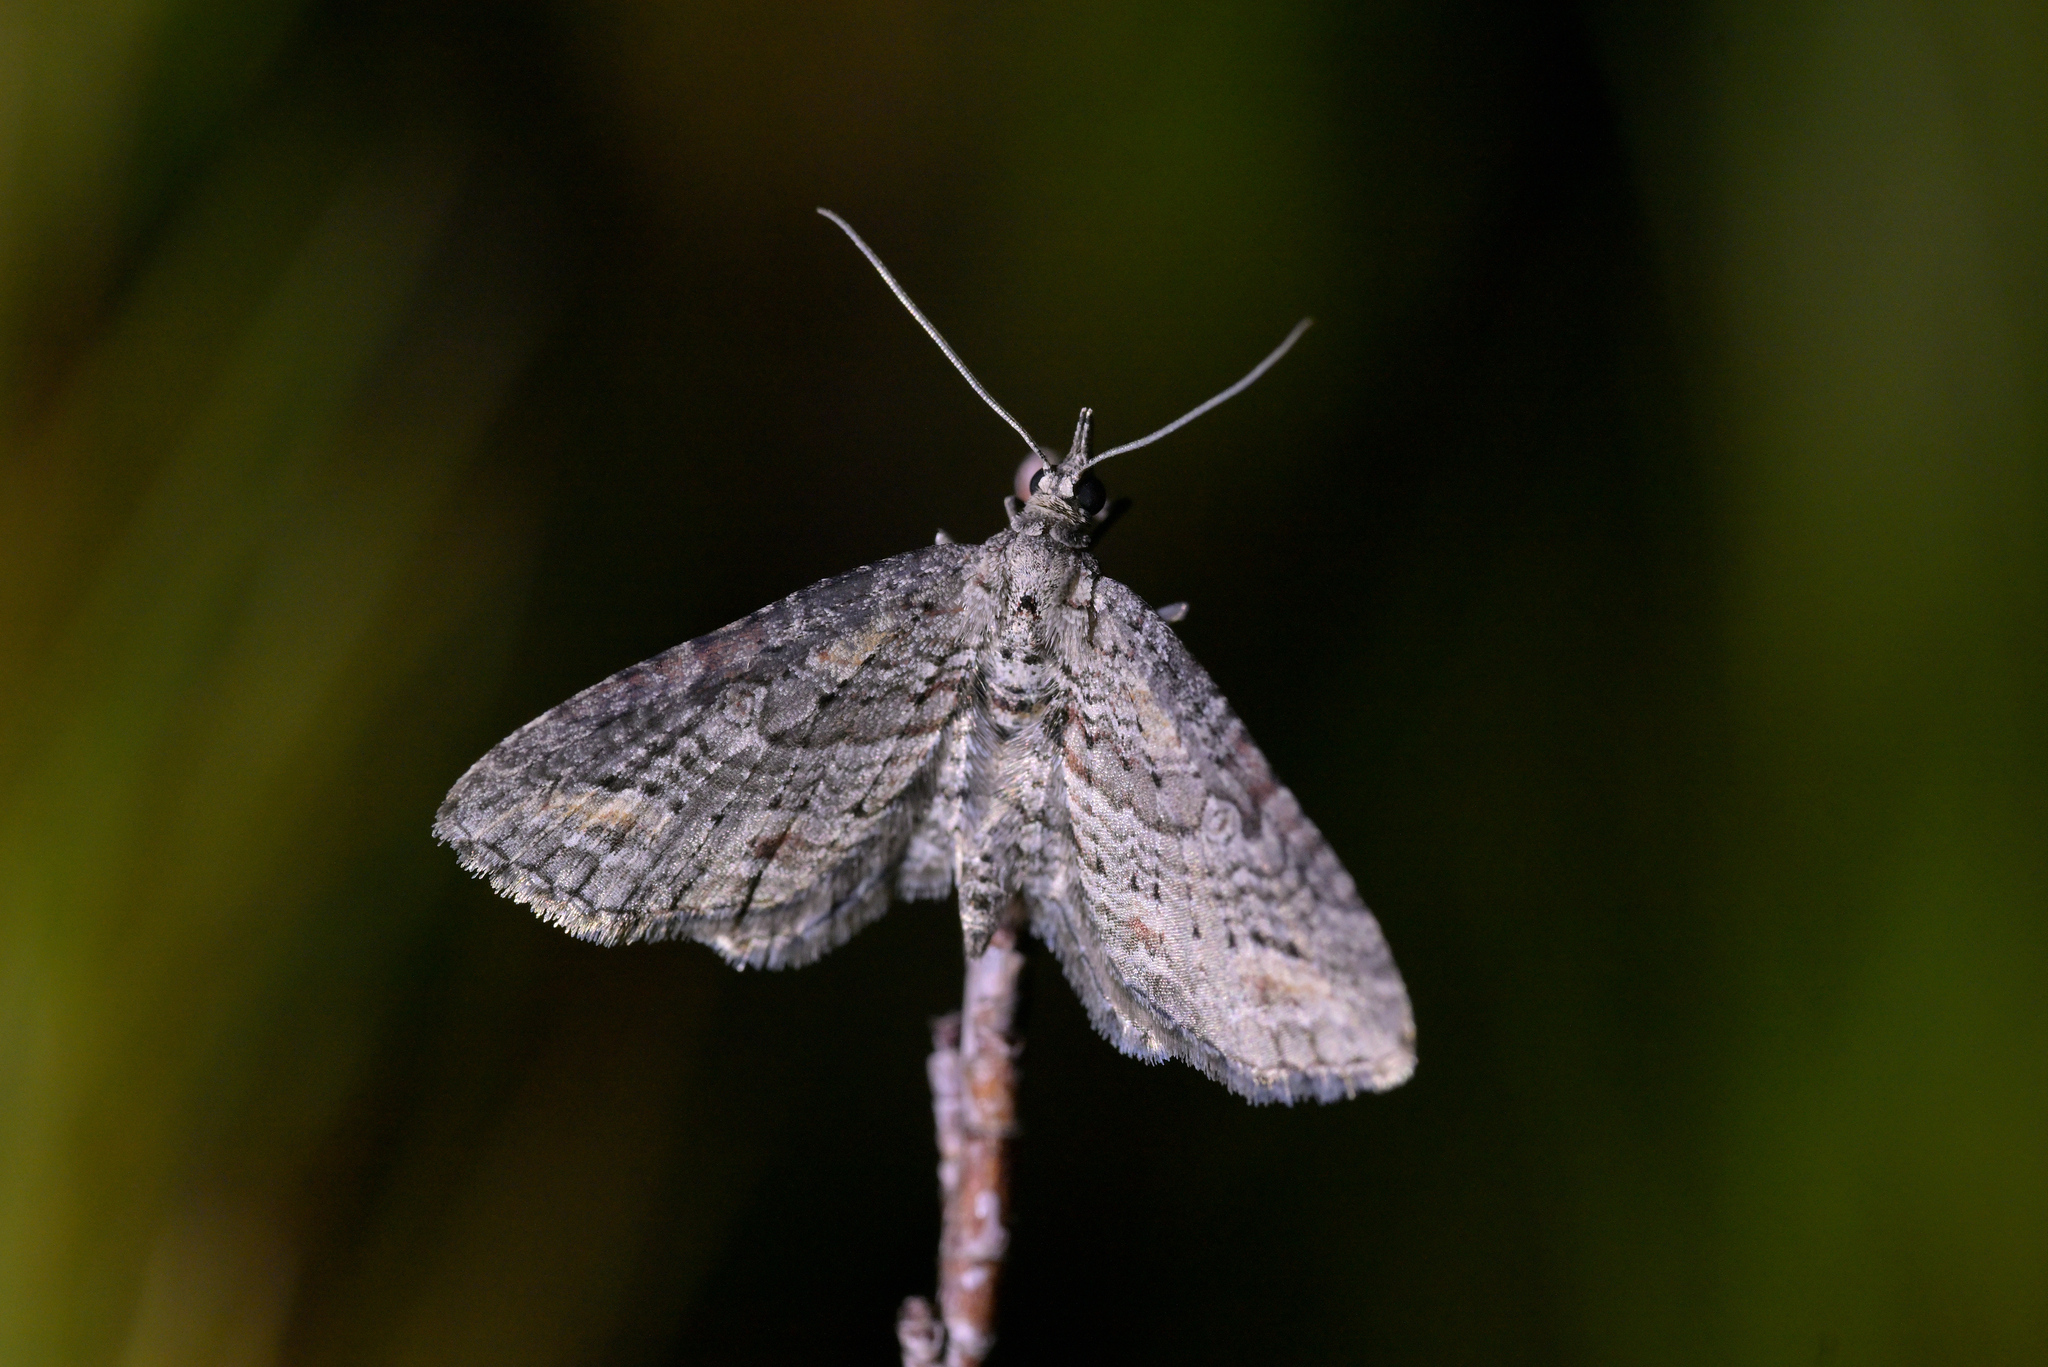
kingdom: Animalia
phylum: Arthropoda
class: Insecta
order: Lepidoptera
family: Geometridae
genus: Pasiphila
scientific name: Pasiphila humilis
